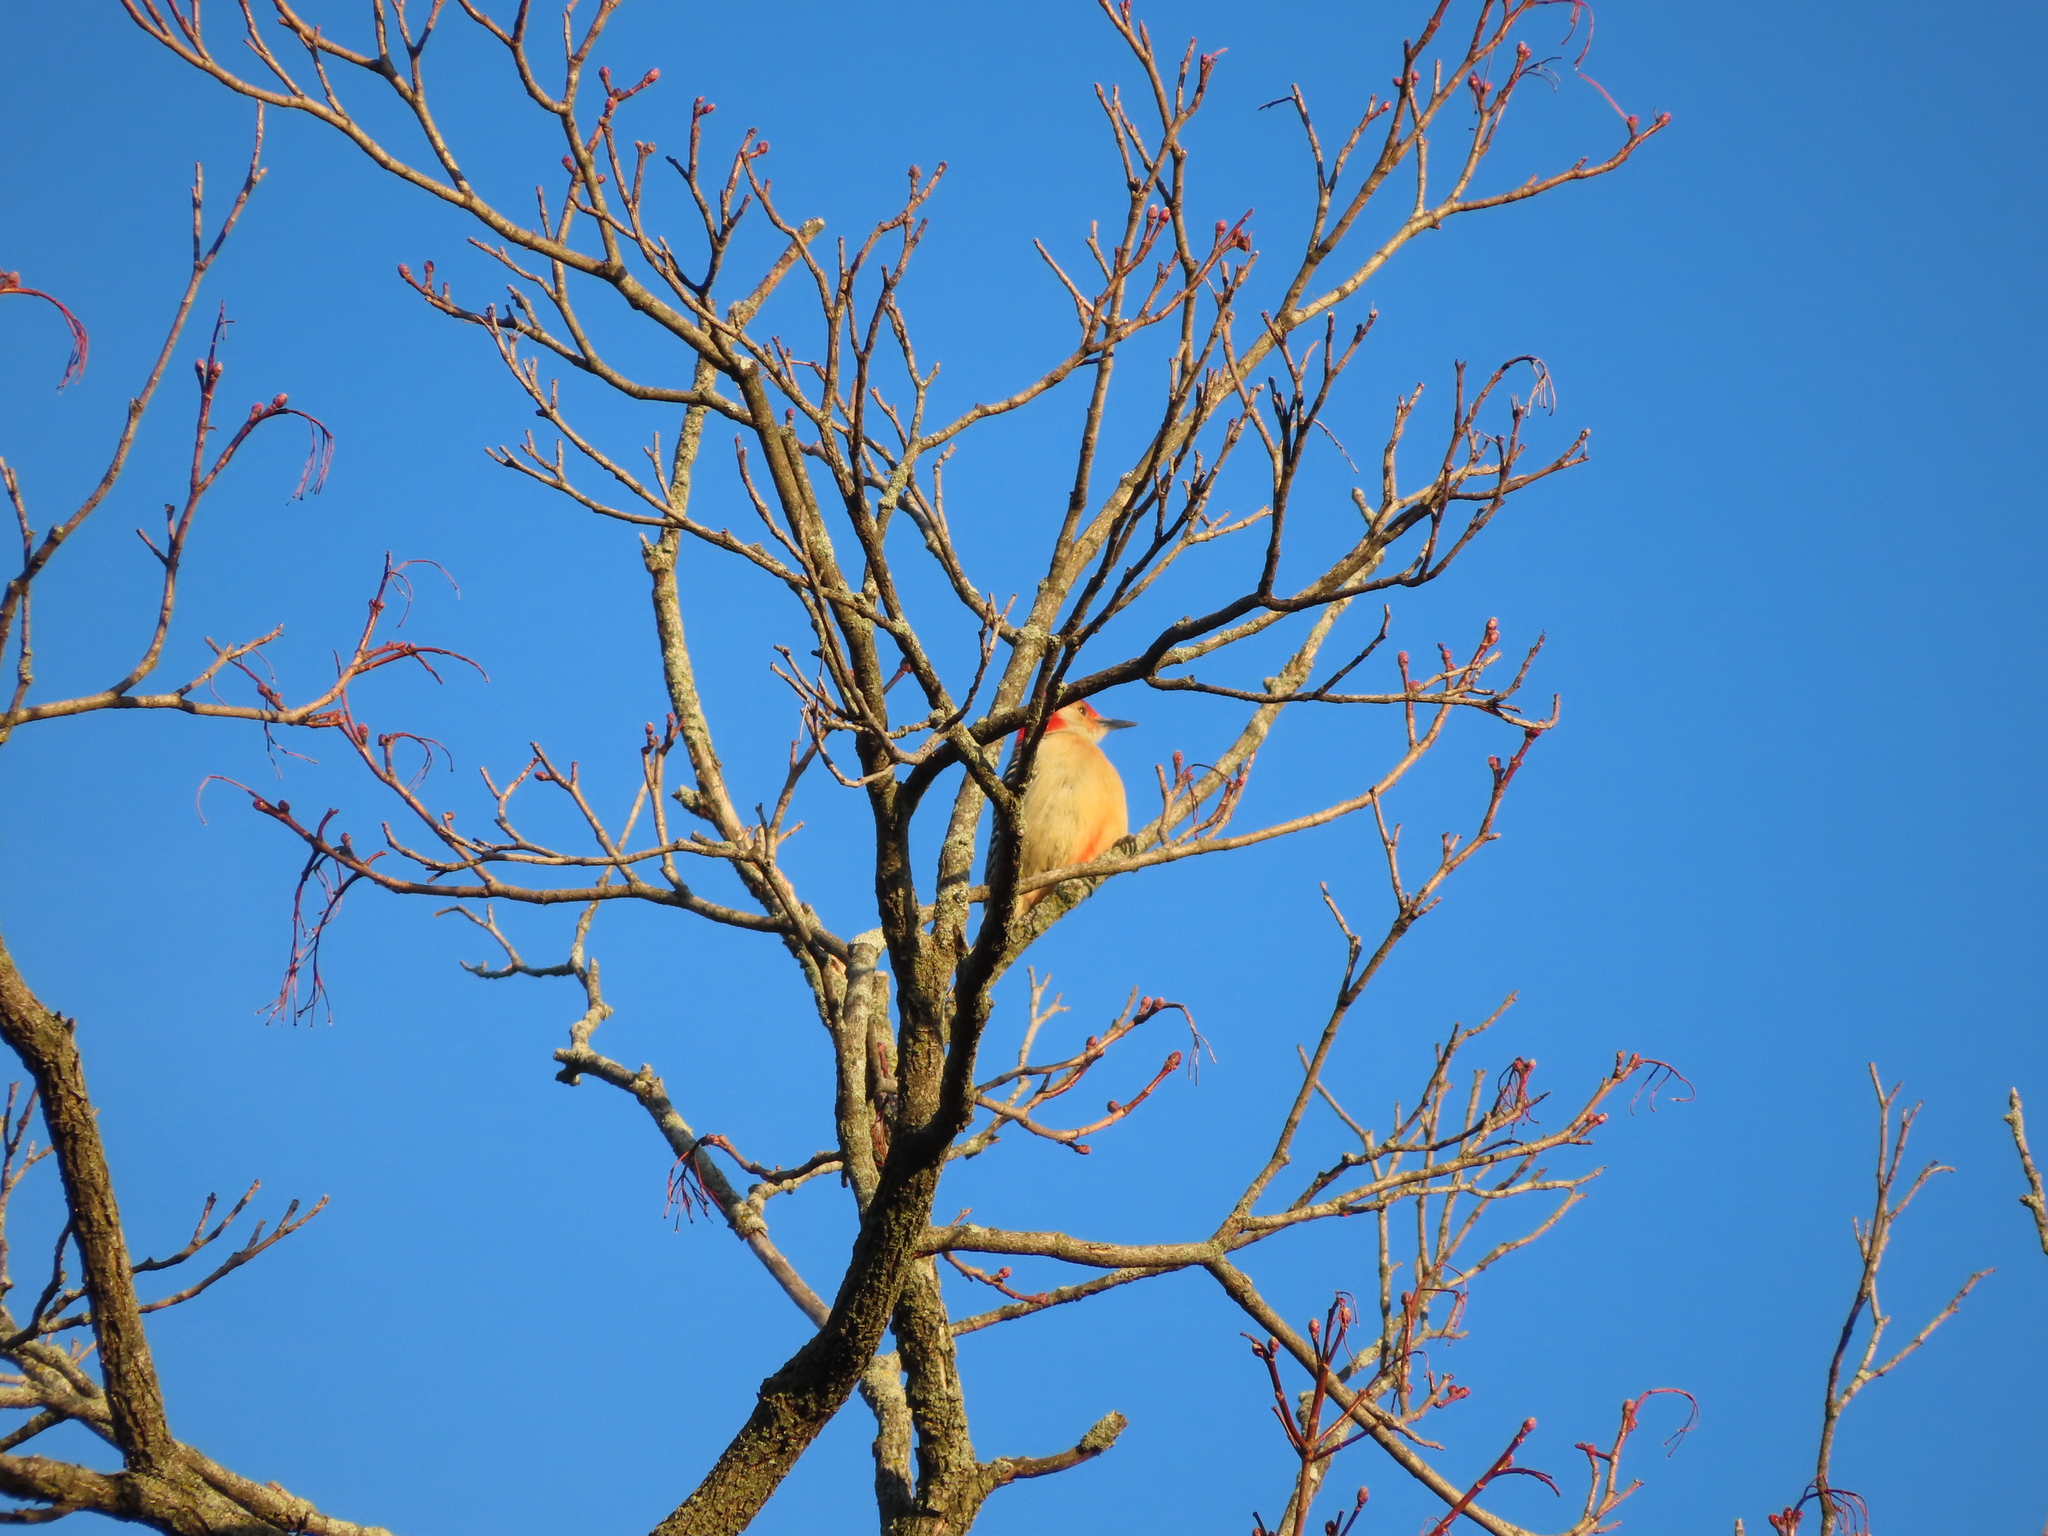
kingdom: Animalia
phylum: Chordata
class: Aves
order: Piciformes
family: Picidae
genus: Melanerpes
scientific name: Melanerpes carolinus
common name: Red-bellied woodpecker
